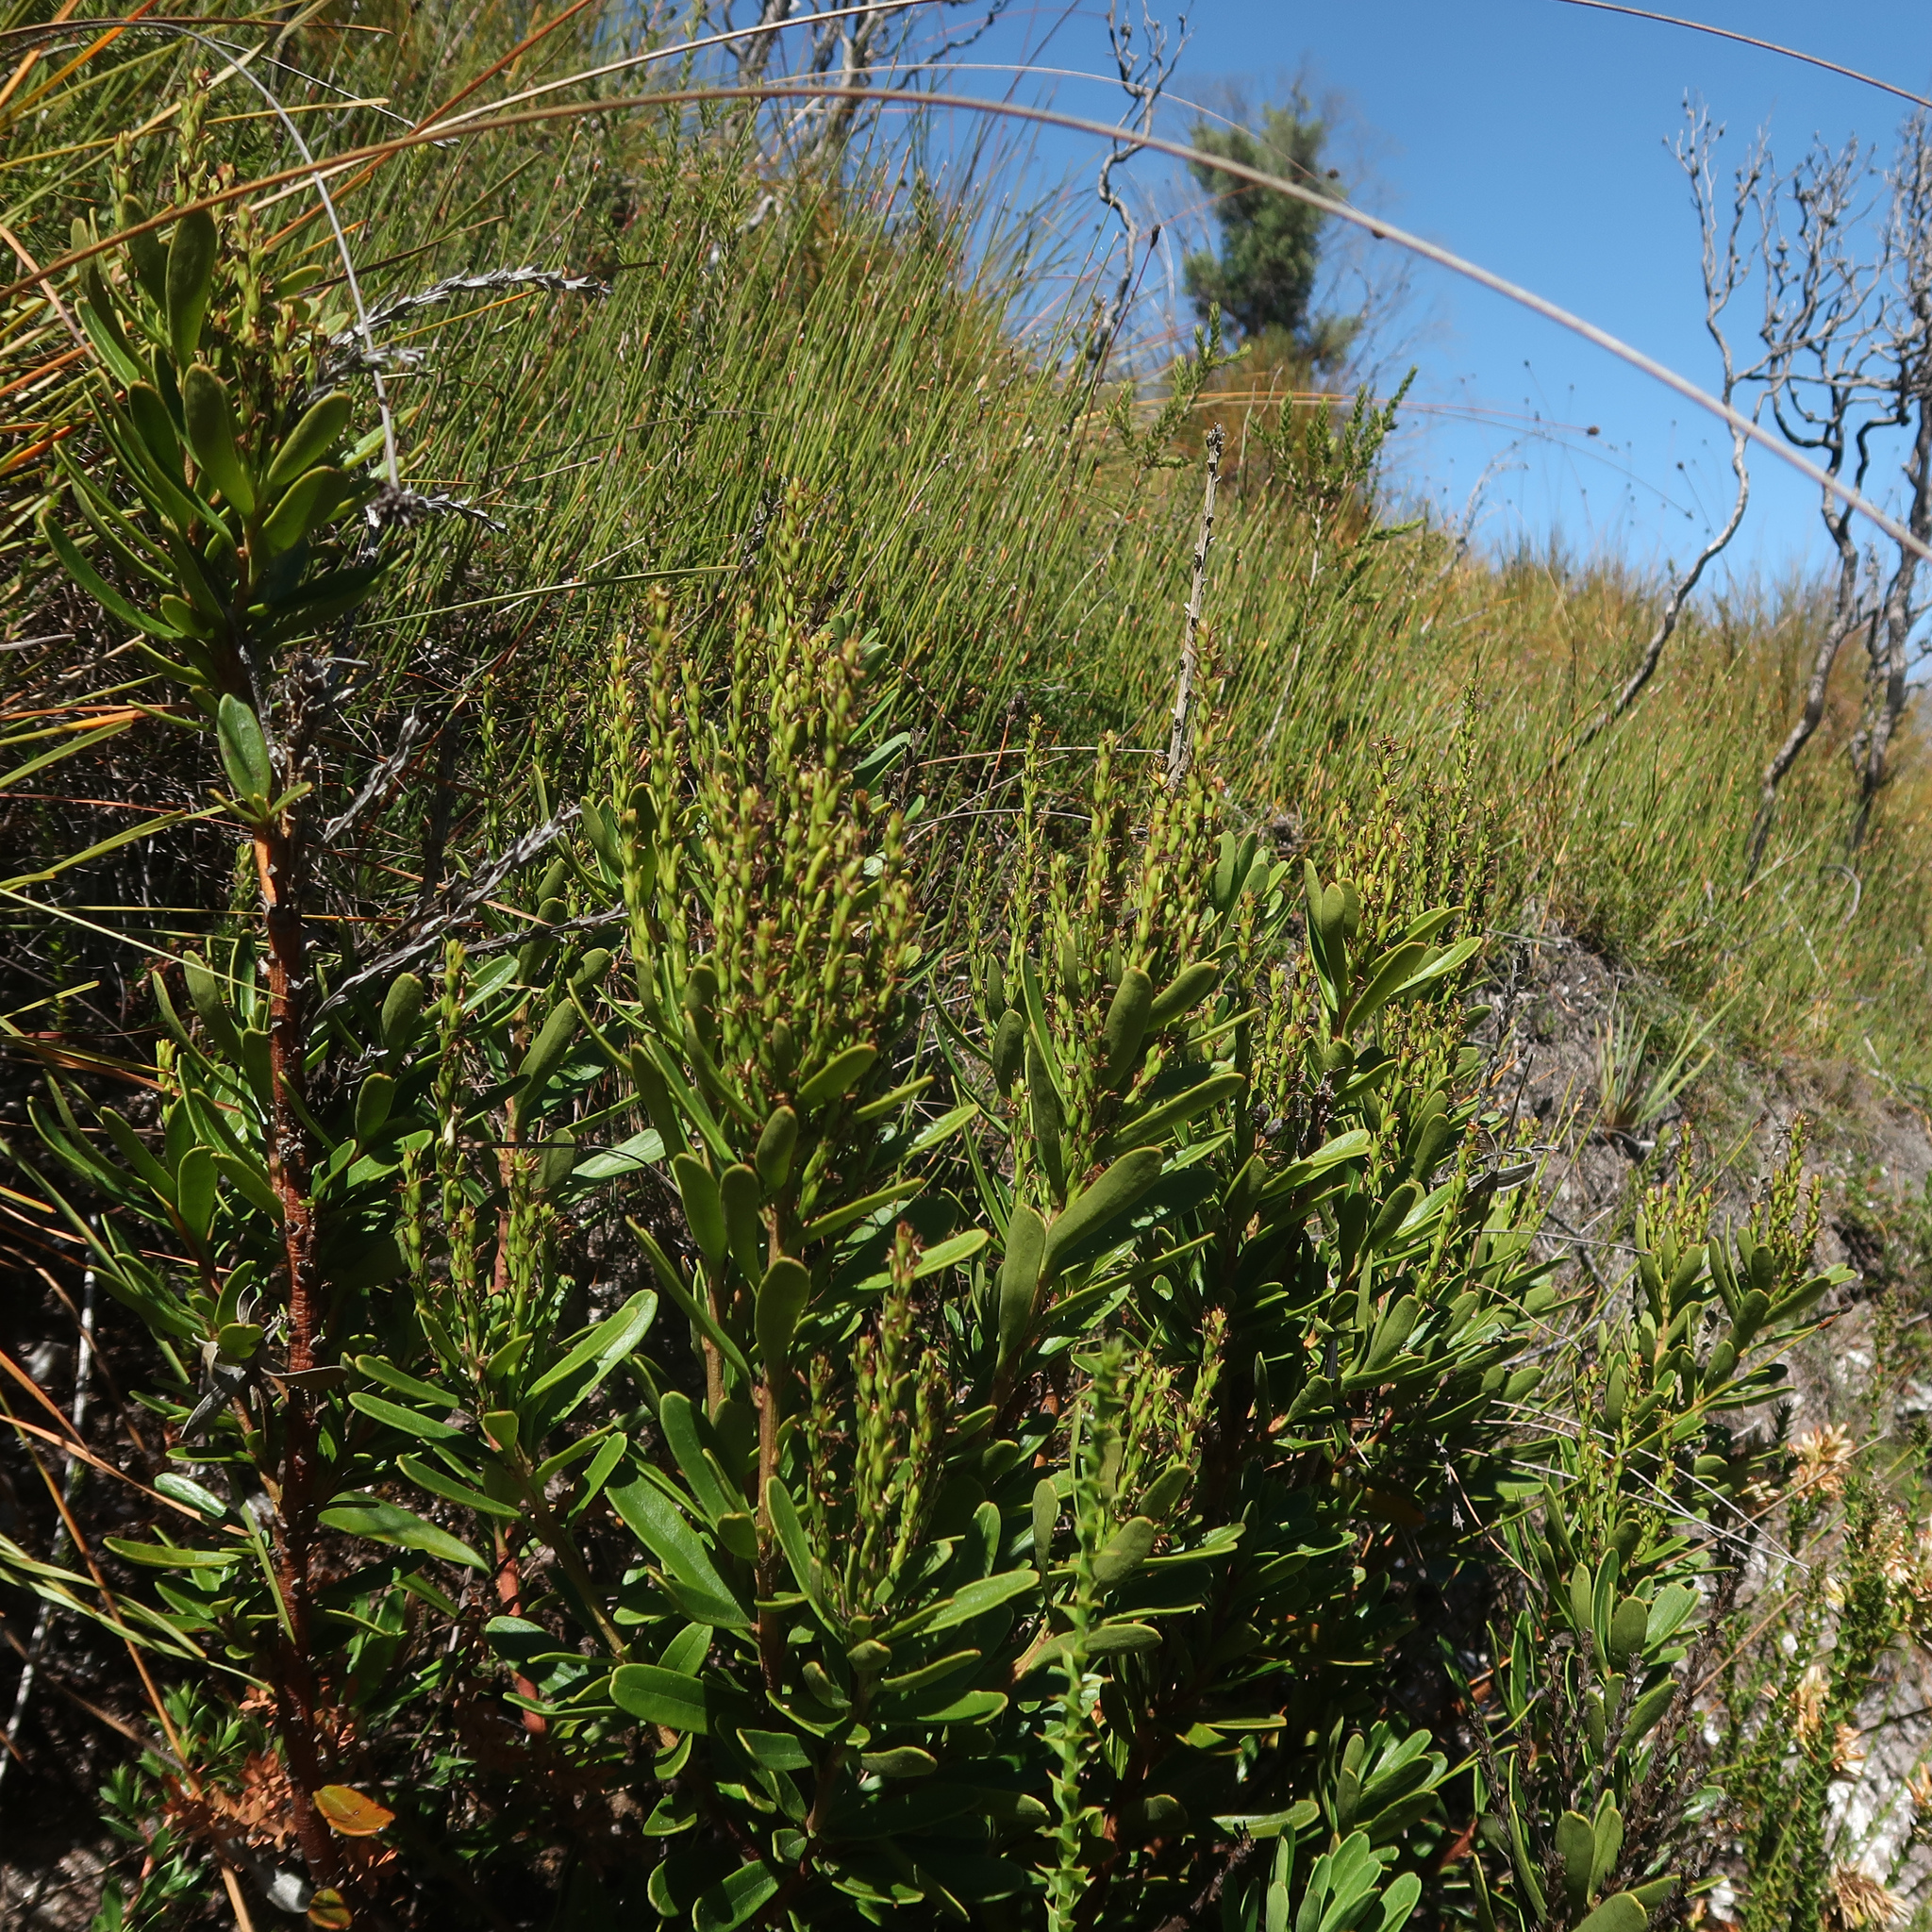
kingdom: Plantae
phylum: Tracheophyta
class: Magnoliopsida
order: Proteales
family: Proteaceae
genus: Agastachys
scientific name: Agastachys odorata
